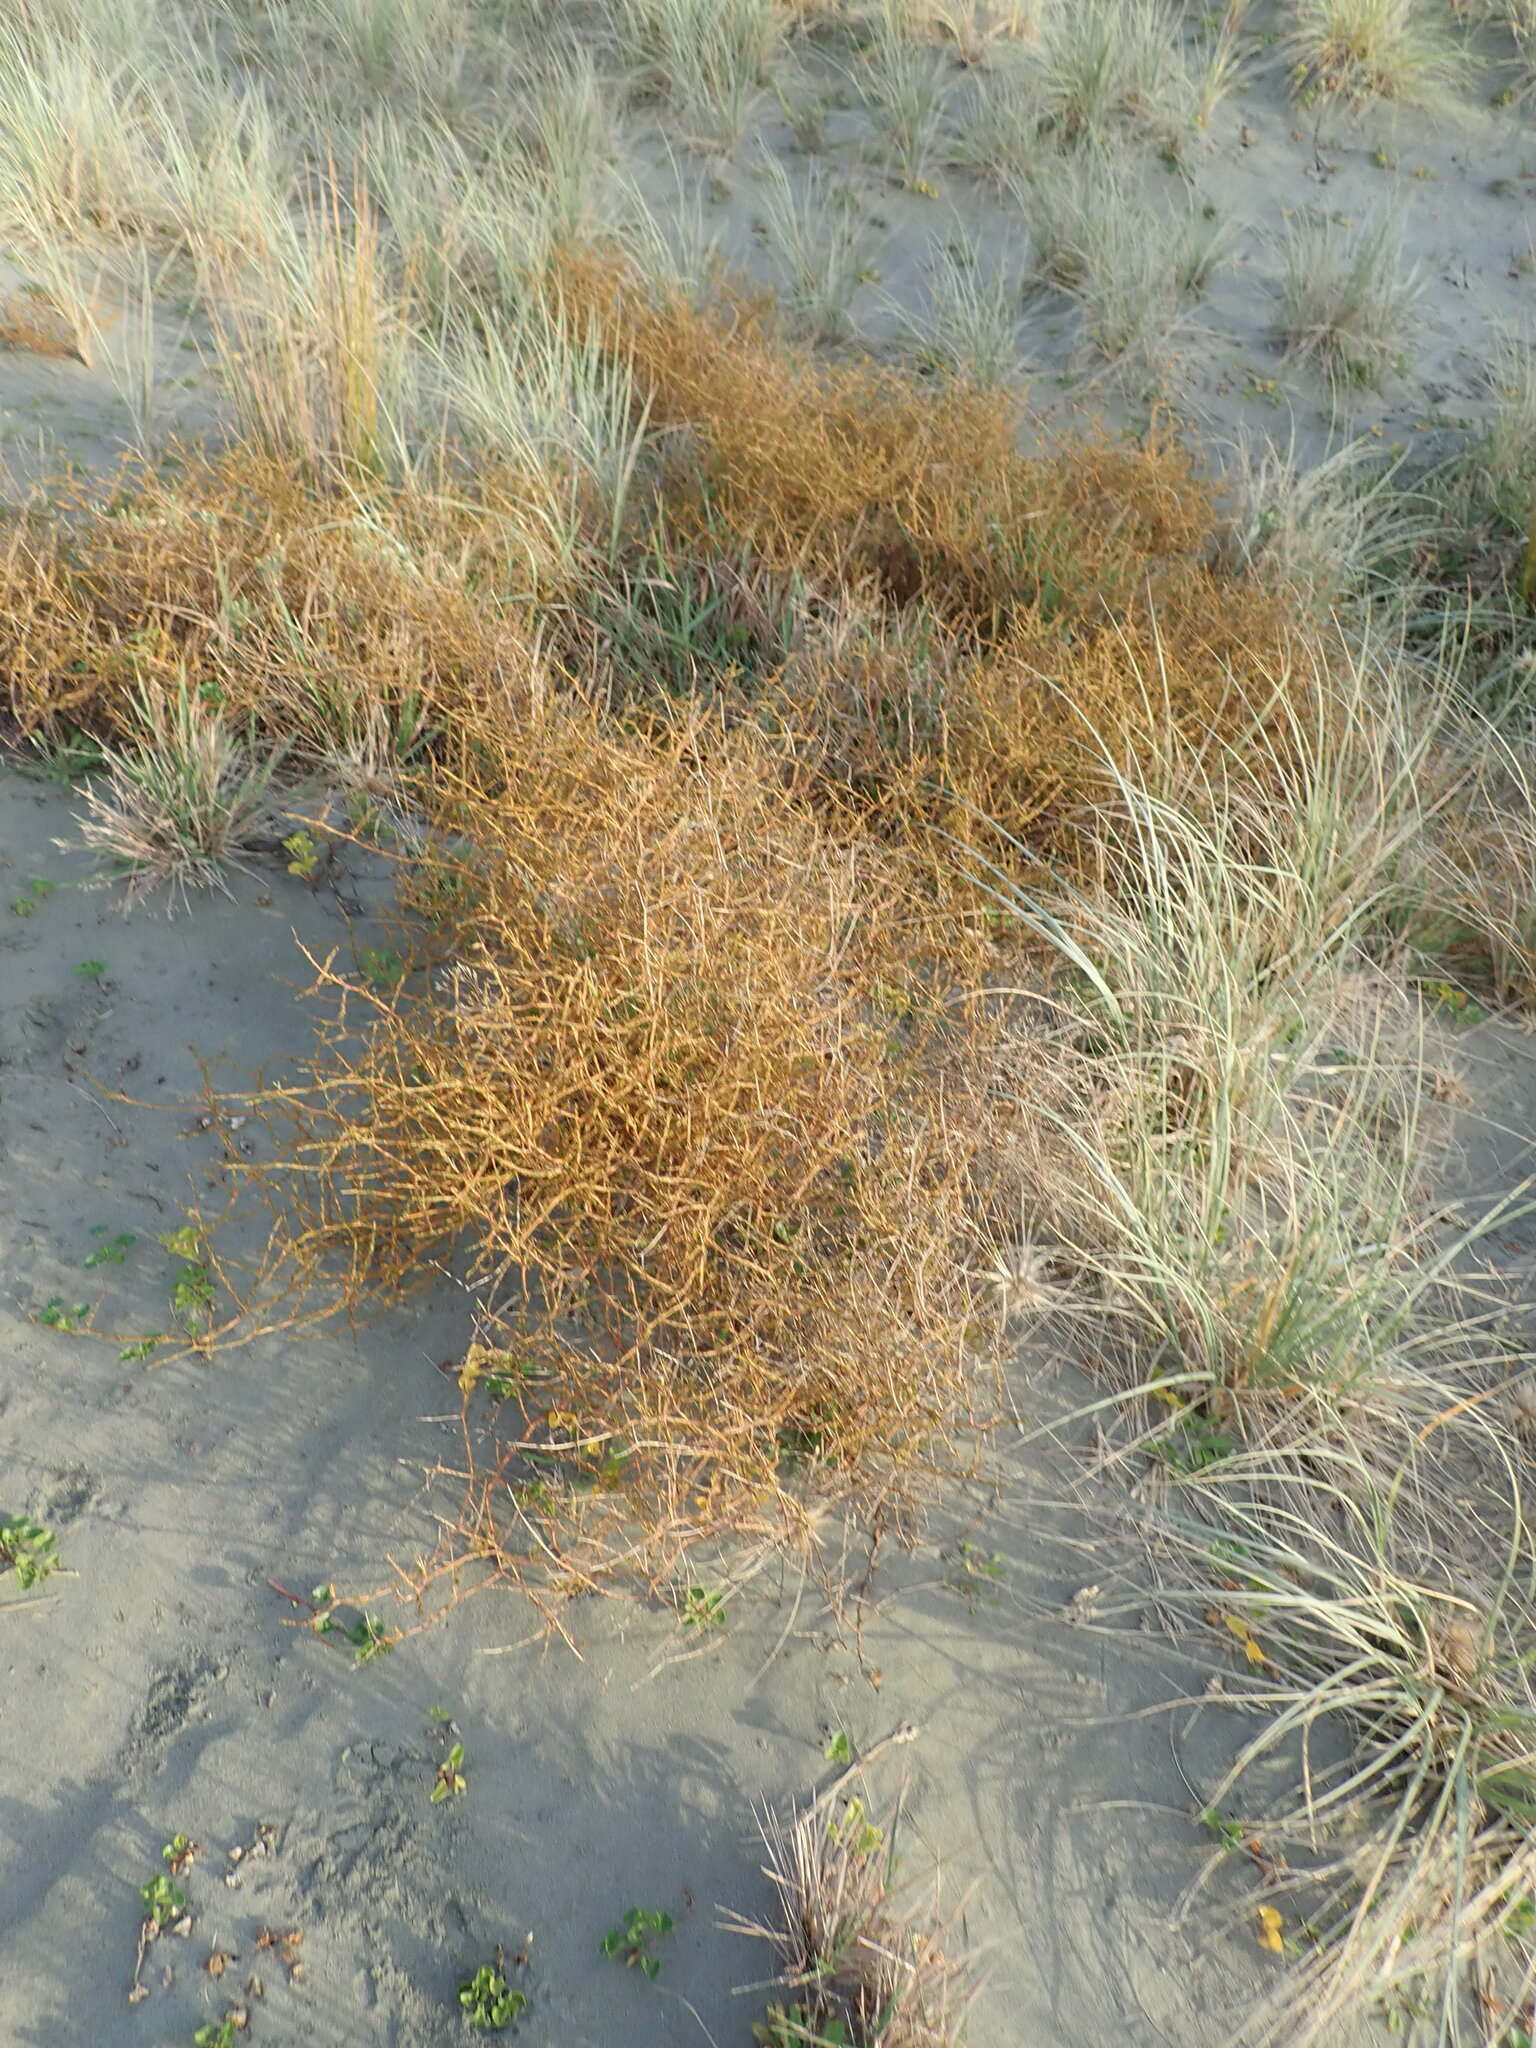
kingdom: Plantae
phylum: Tracheophyta
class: Magnoliopsida
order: Gentianales
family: Rubiaceae
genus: Coprosma
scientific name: Coprosma acerosa
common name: Sand coprosma
